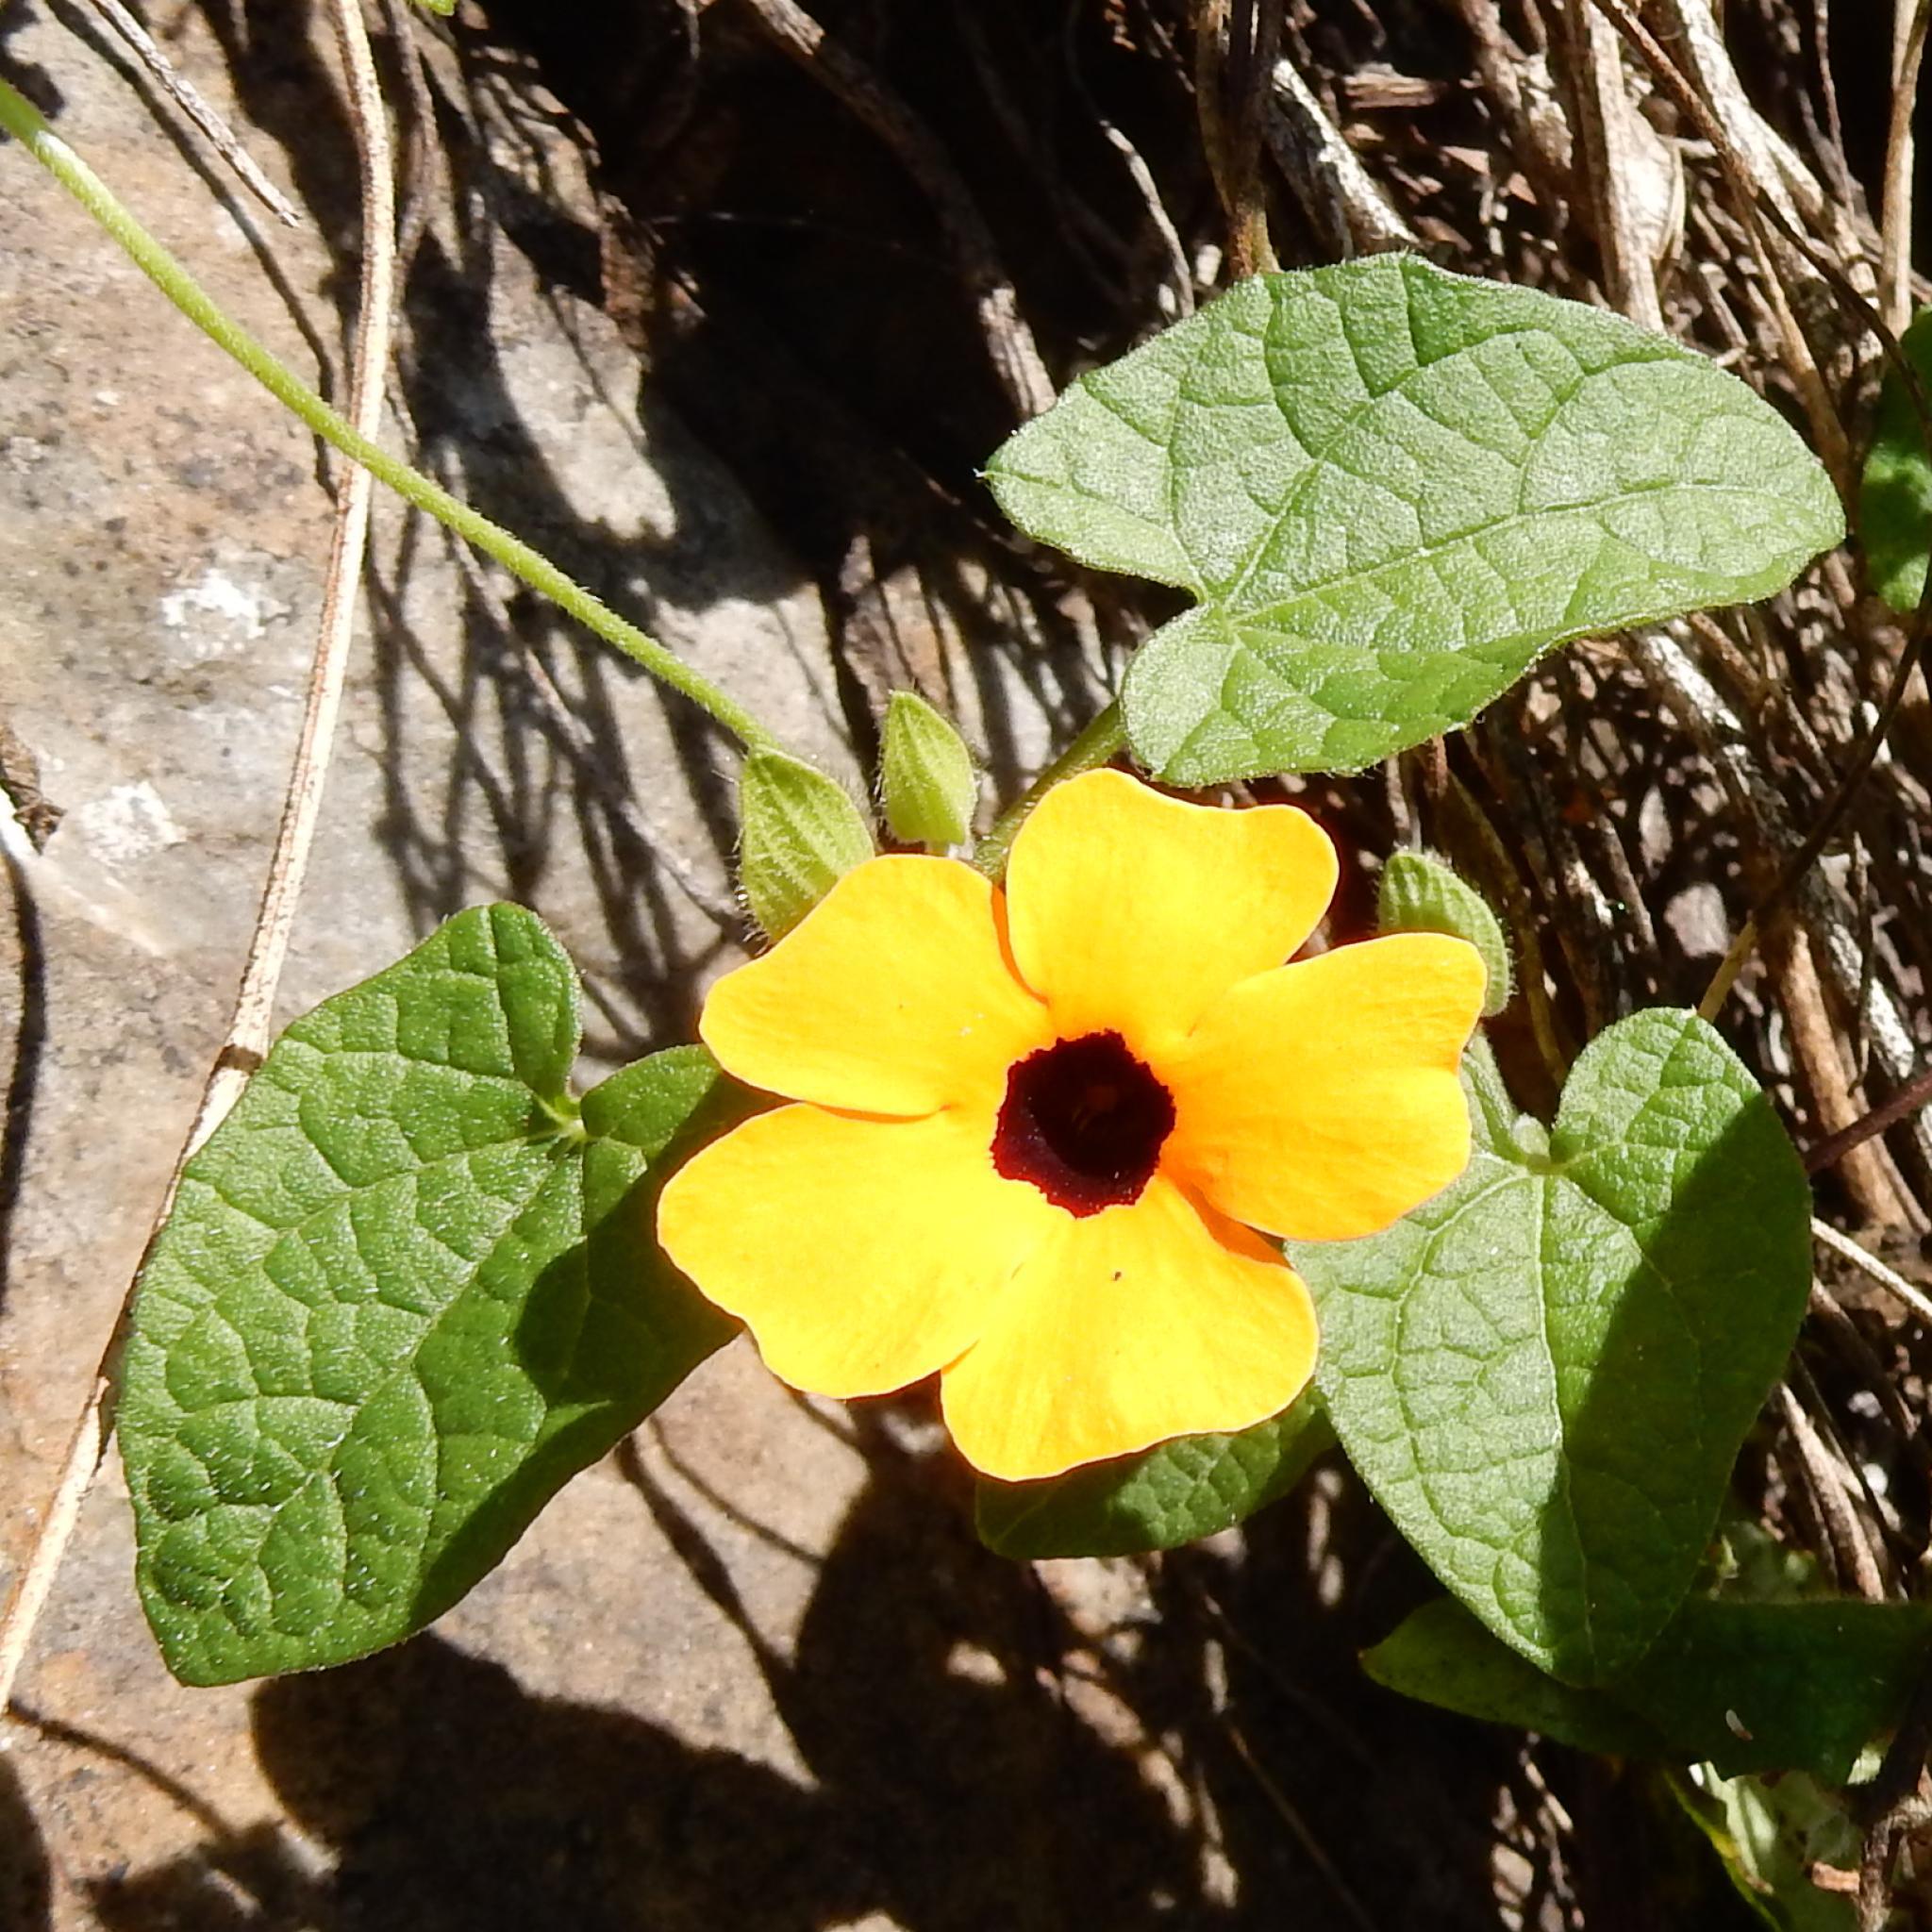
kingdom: Plantae
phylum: Tracheophyta
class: Magnoliopsida
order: Lamiales
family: Acanthaceae
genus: Thunbergia
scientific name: Thunbergia alata
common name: Blackeyed susan vine
